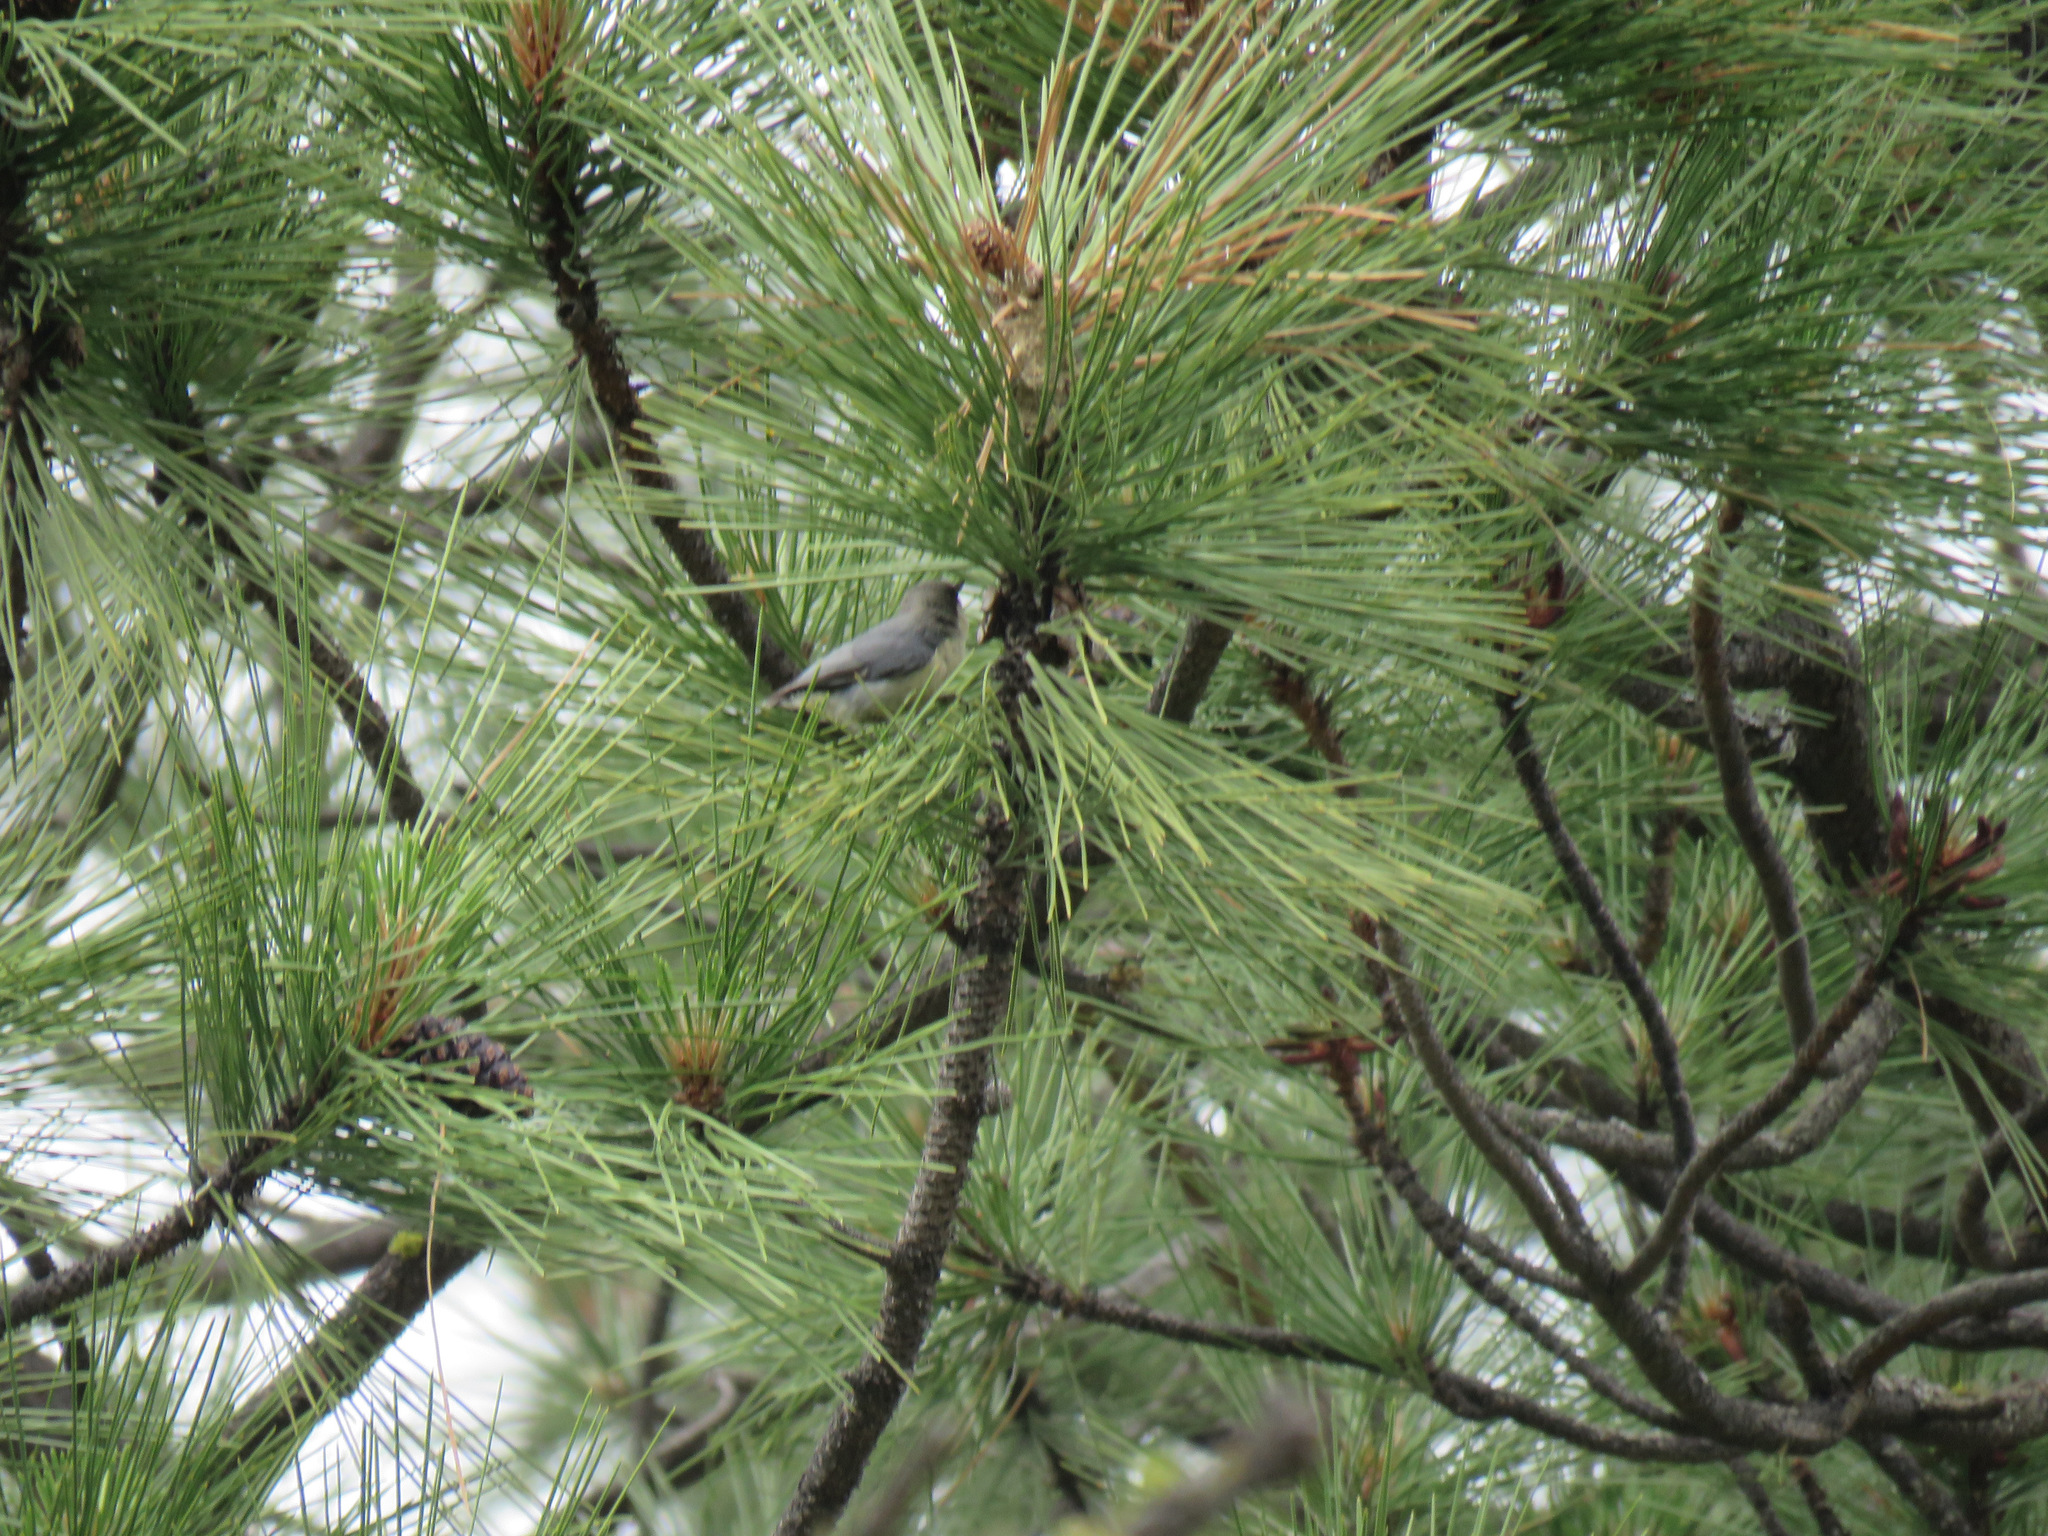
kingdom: Animalia
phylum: Chordata
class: Aves
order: Passeriformes
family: Sittidae
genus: Sitta
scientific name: Sitta pygmaea
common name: Pygmy nuthatch
